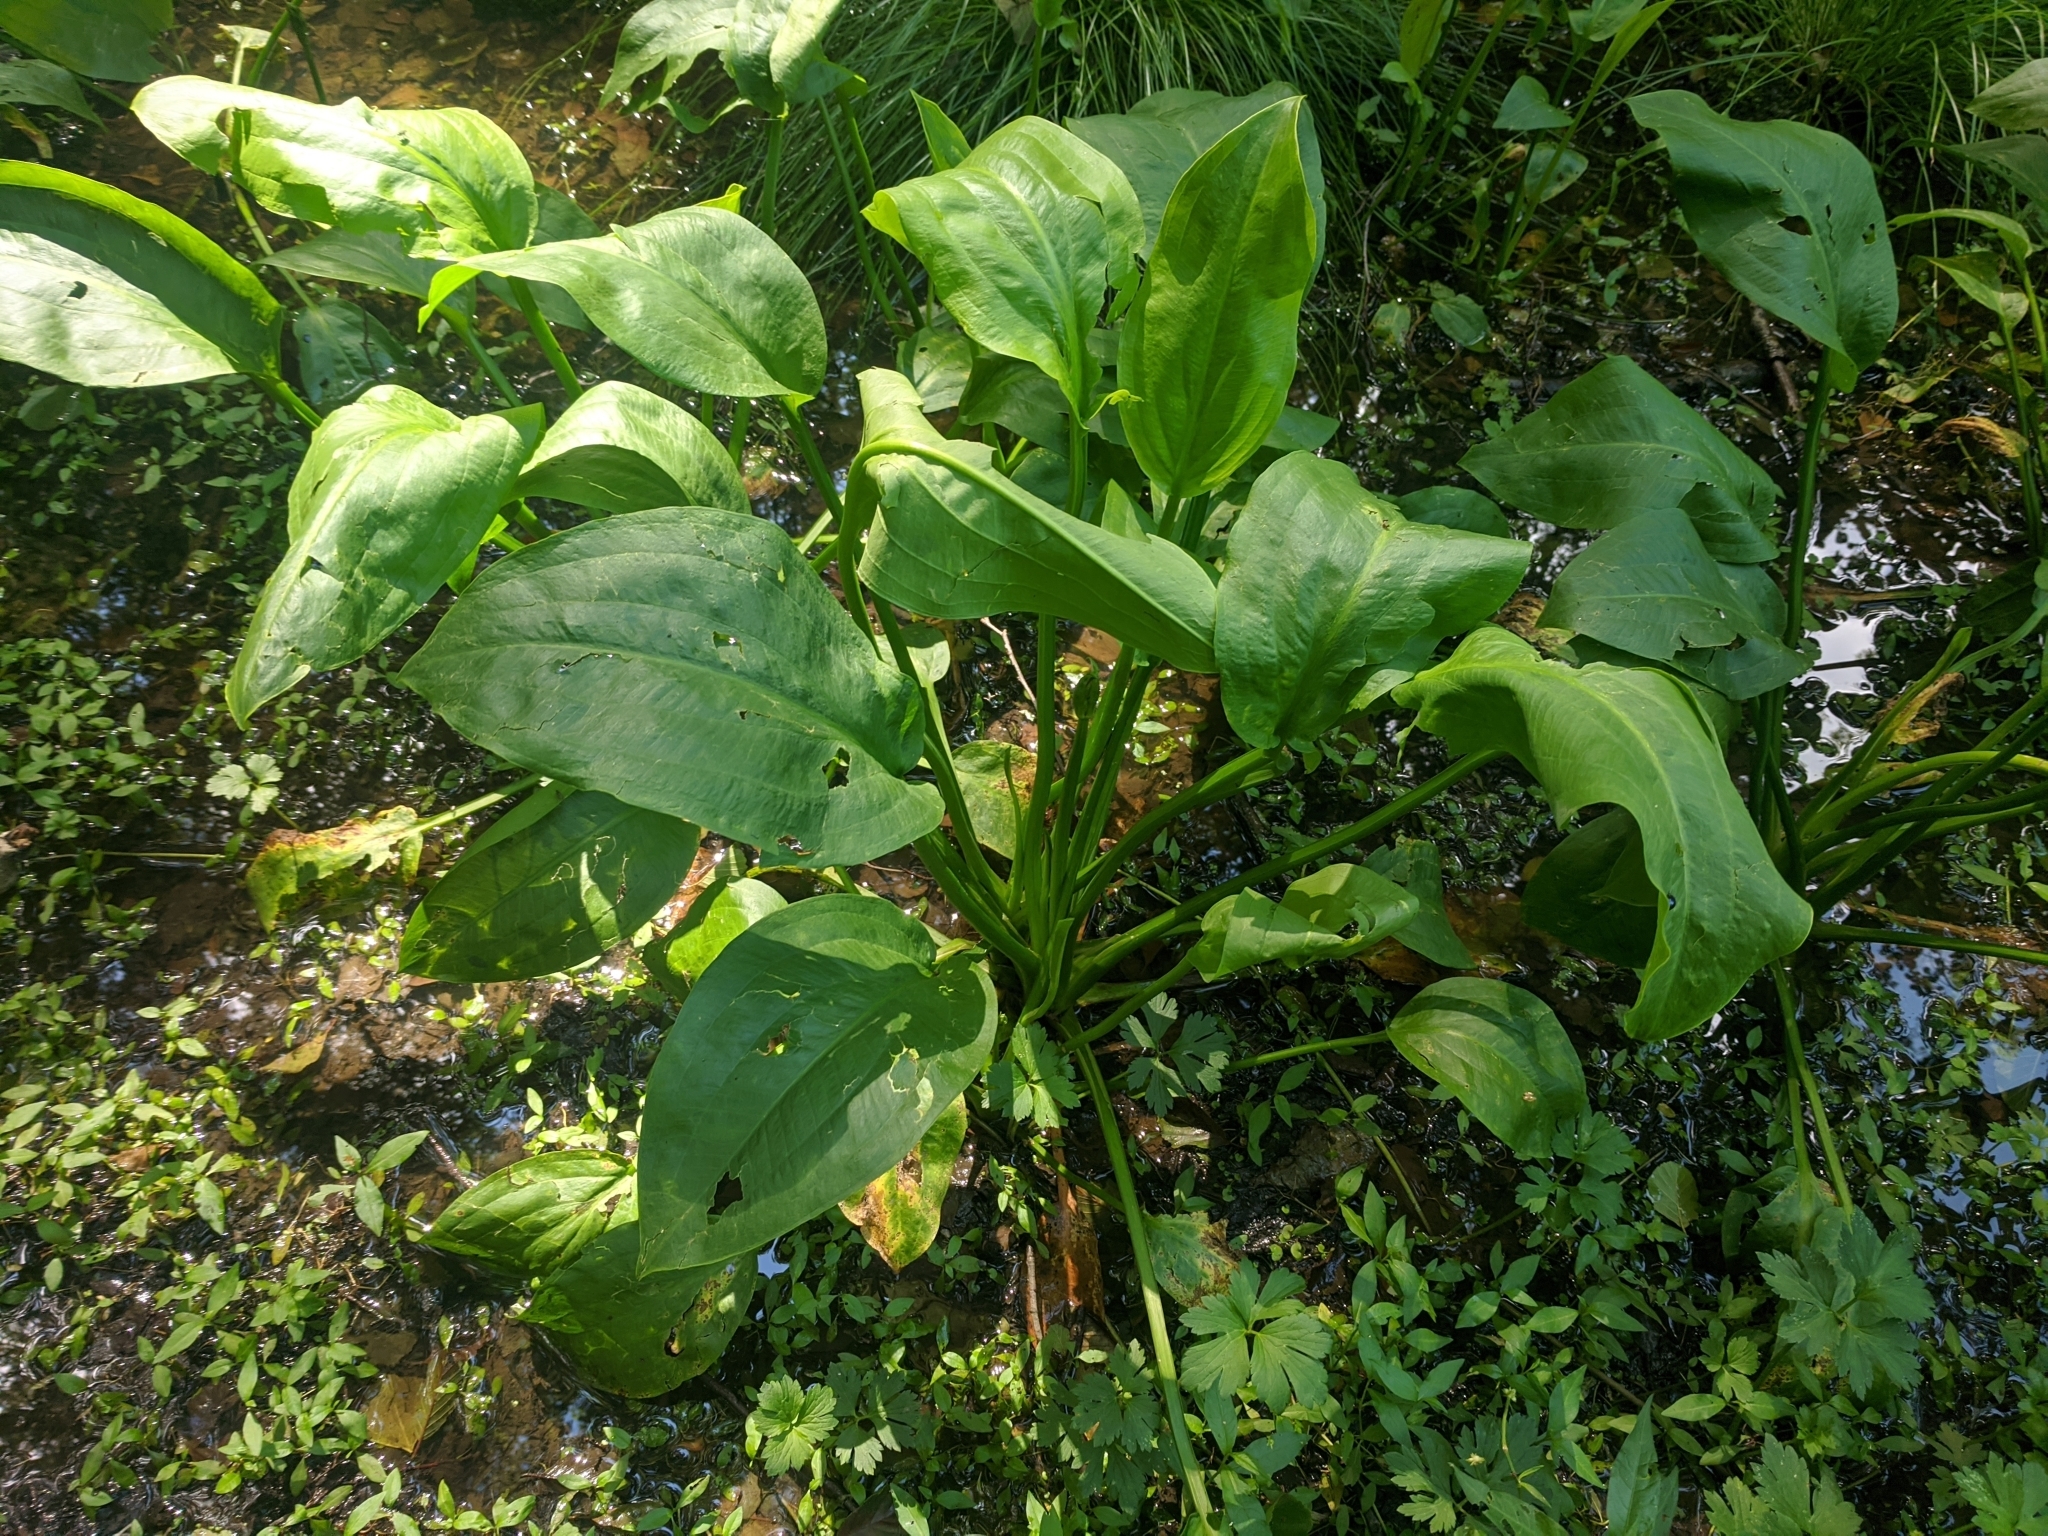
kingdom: Plantae
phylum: Tracheophyta
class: Liliopsida
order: Alismatales
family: Alismataceae
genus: Alisma
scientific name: Alisma plantago-aquatica
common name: Water-plantain
